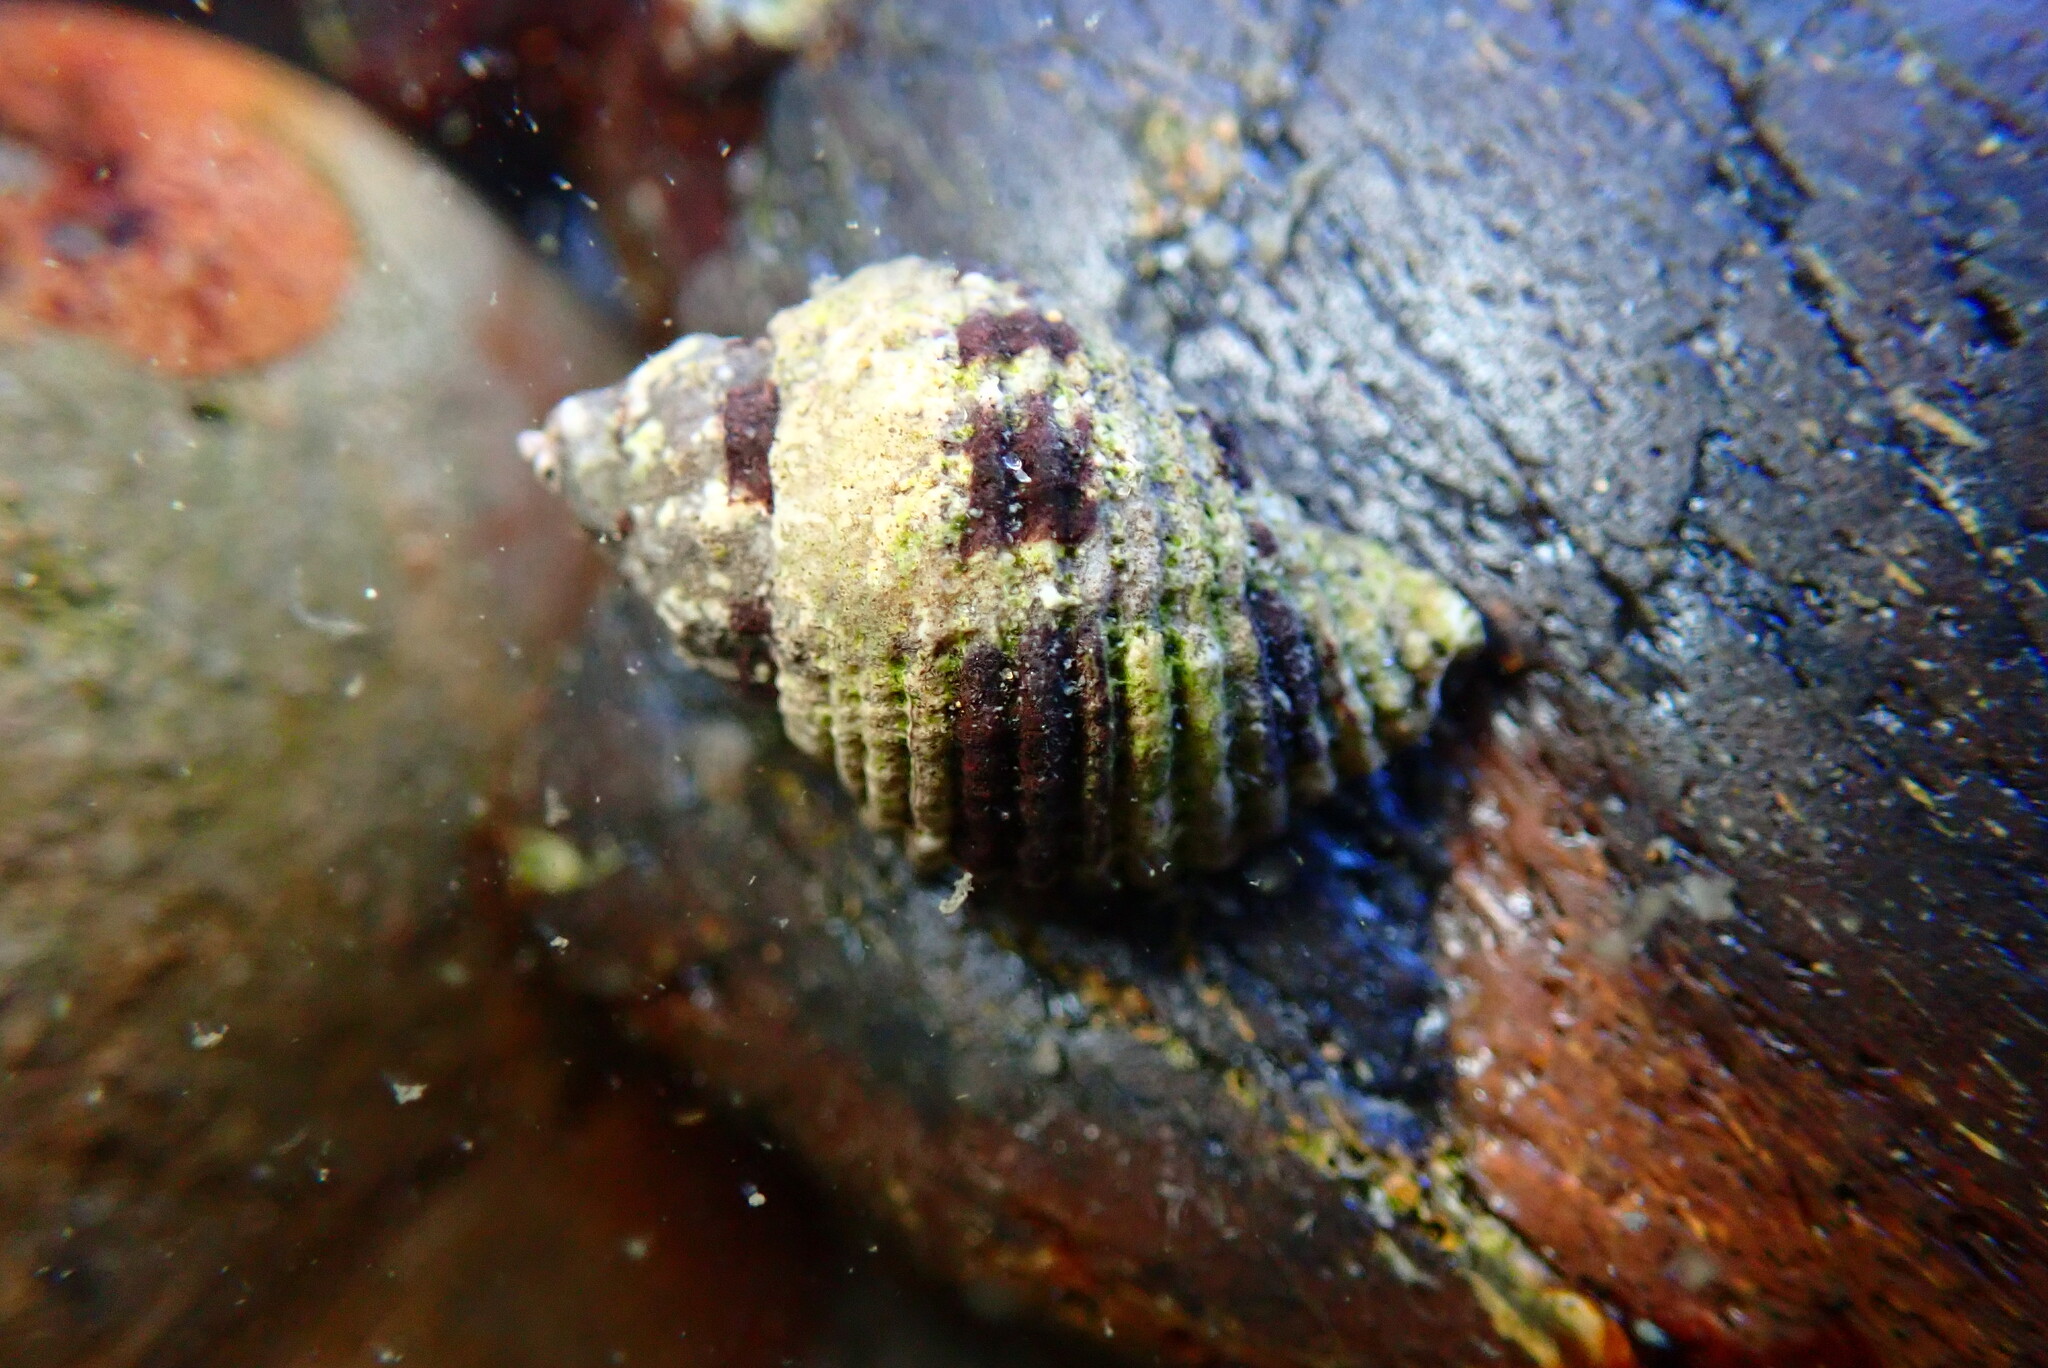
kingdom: Animalia
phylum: Mollusca
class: Gastropoda
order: Neogastropoda
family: Muricidae
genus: Paciocinebrina
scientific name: Paciocinebrina circumtexta
